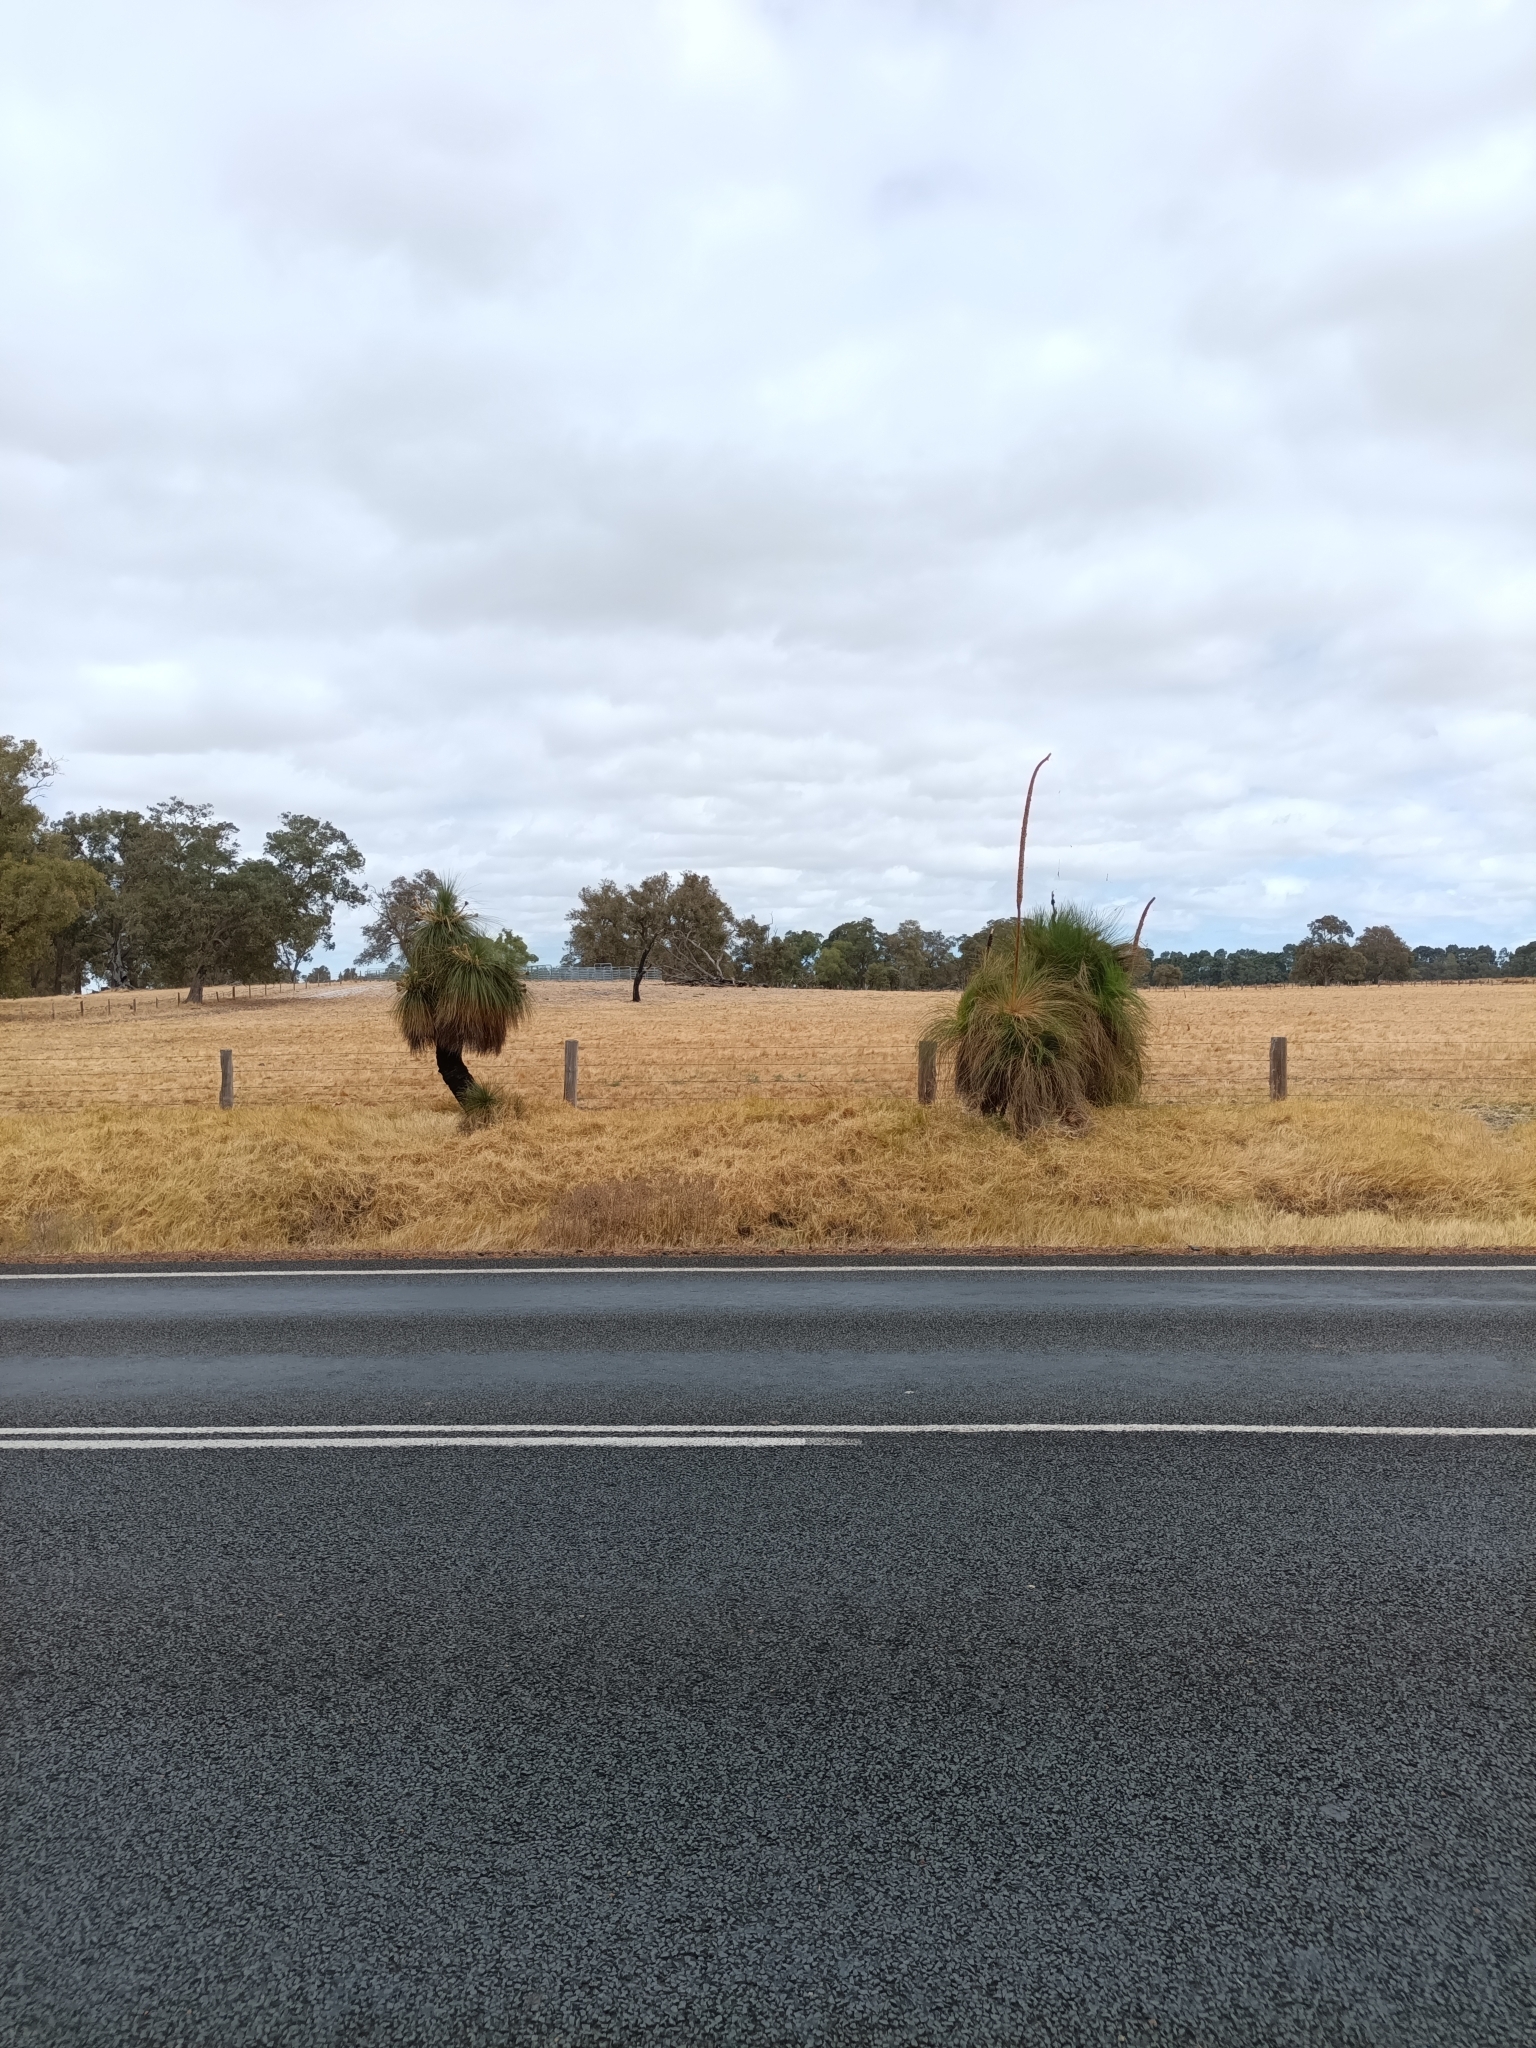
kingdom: Plantae
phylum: Tracheophyta
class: Liliopsida
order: Asparagales
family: Asphodelaceae
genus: Xanthorrhoea
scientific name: Xanthorrhoea preissii
